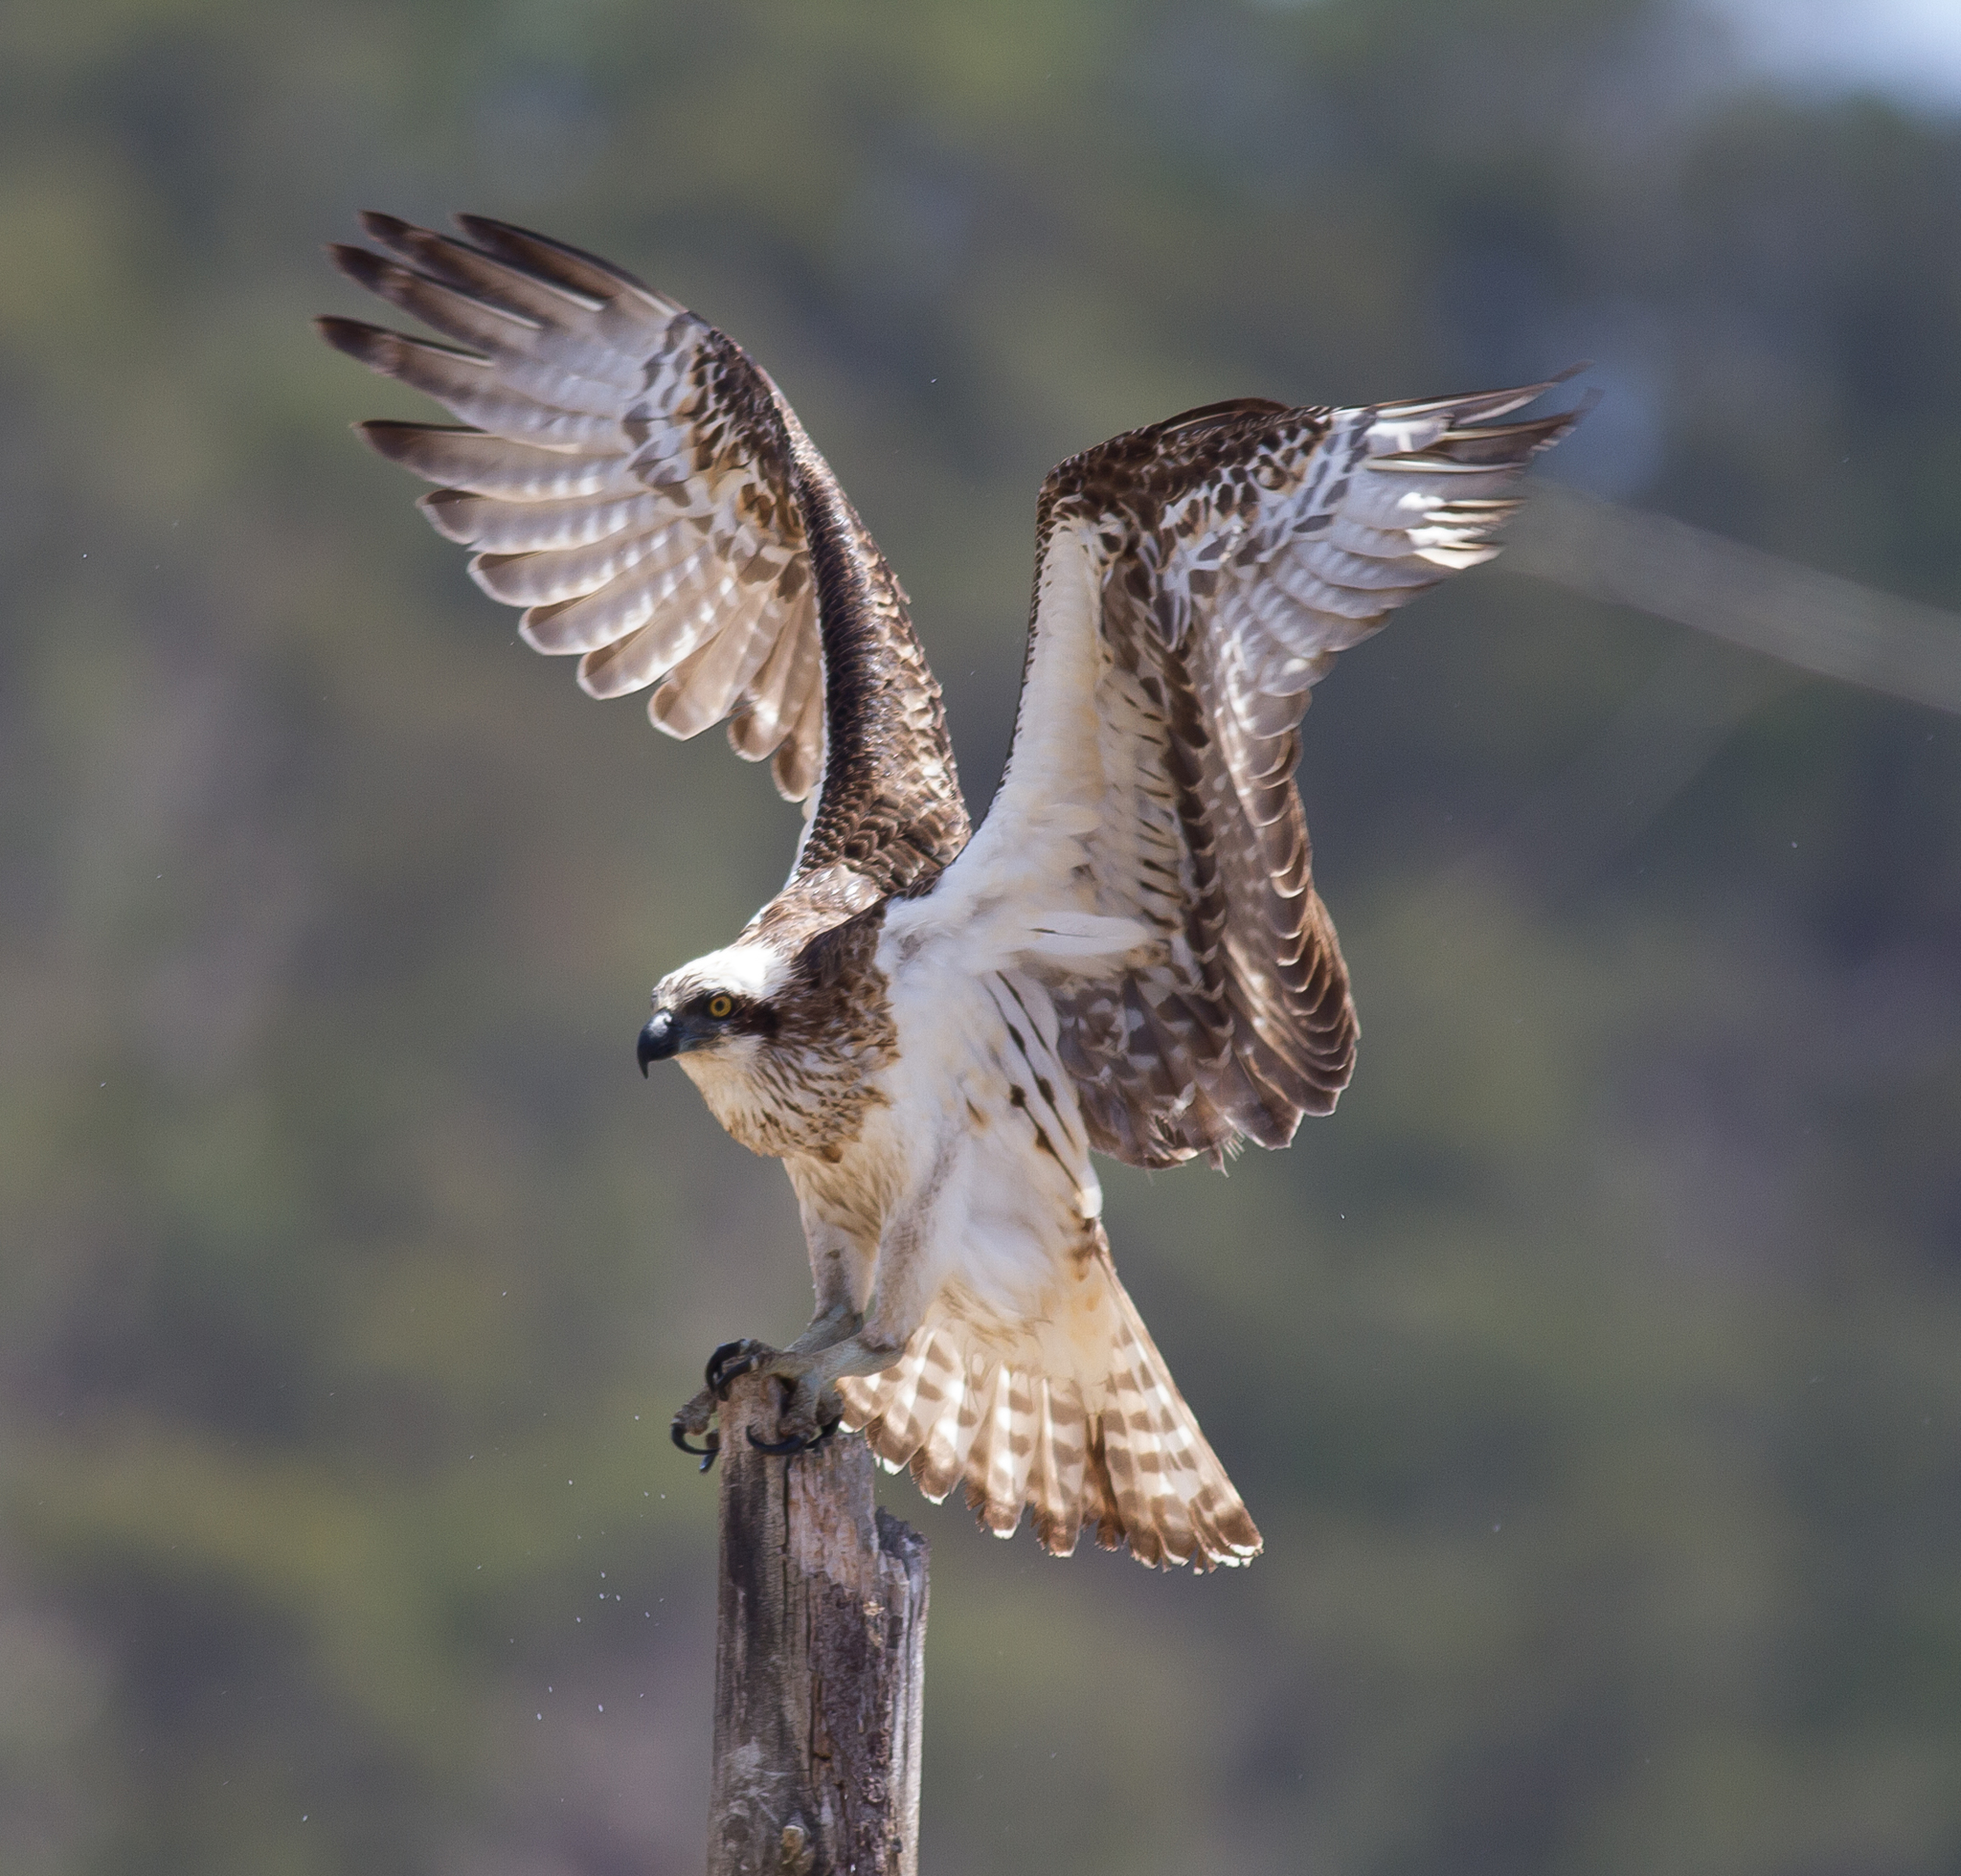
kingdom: Animalia
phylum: Chordata
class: Aves
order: Accipitriformes
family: Pandionidae
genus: Pandion
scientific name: Pandion haliaetus
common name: Osprey
